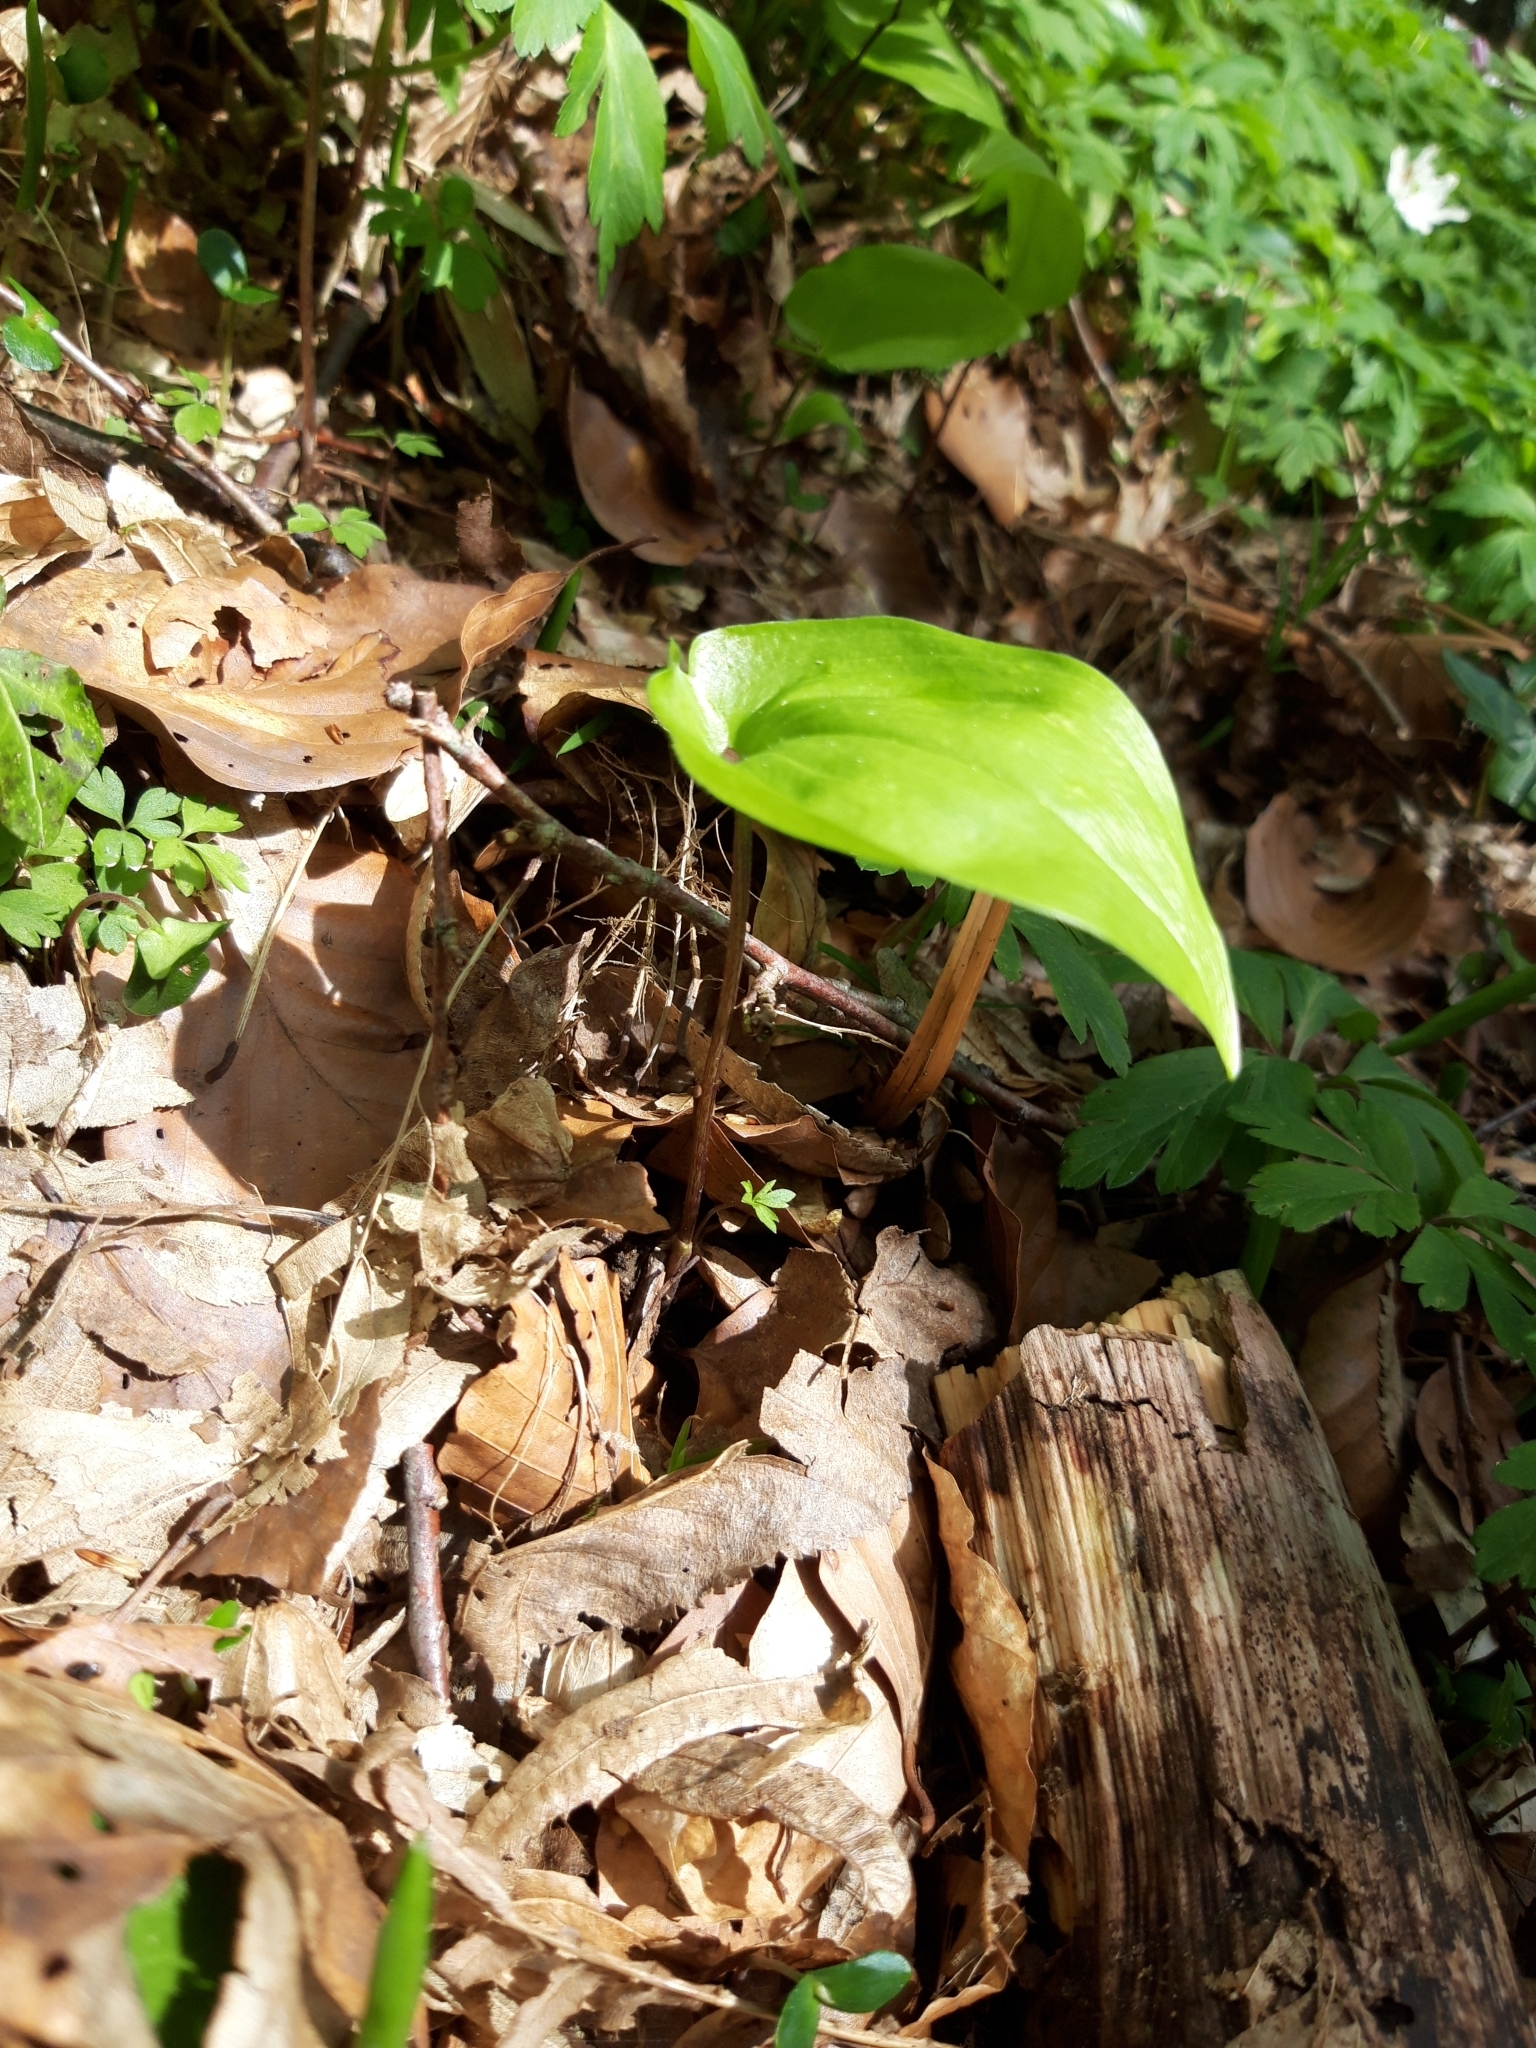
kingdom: Plantae
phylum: Tracheophyta
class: Liliopsida
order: Asparagales
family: Asparagaceae
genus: Maianthemum
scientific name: Maianthemum bifolium
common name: May lily
